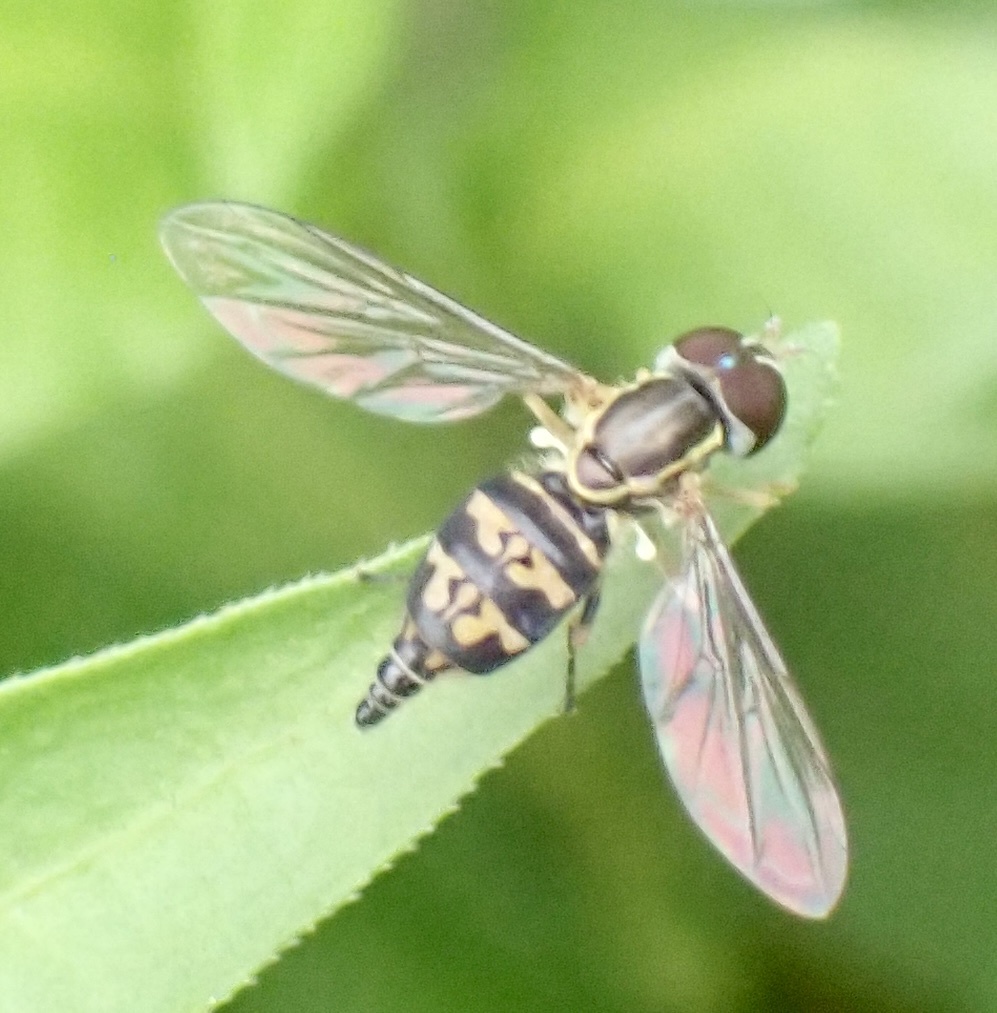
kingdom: Animalia
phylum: Arthropoda
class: Insecta
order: Diptera
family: Syrphidae
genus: Toxomerus
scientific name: Toxomerus geminatus
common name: Eastern calligrapher
